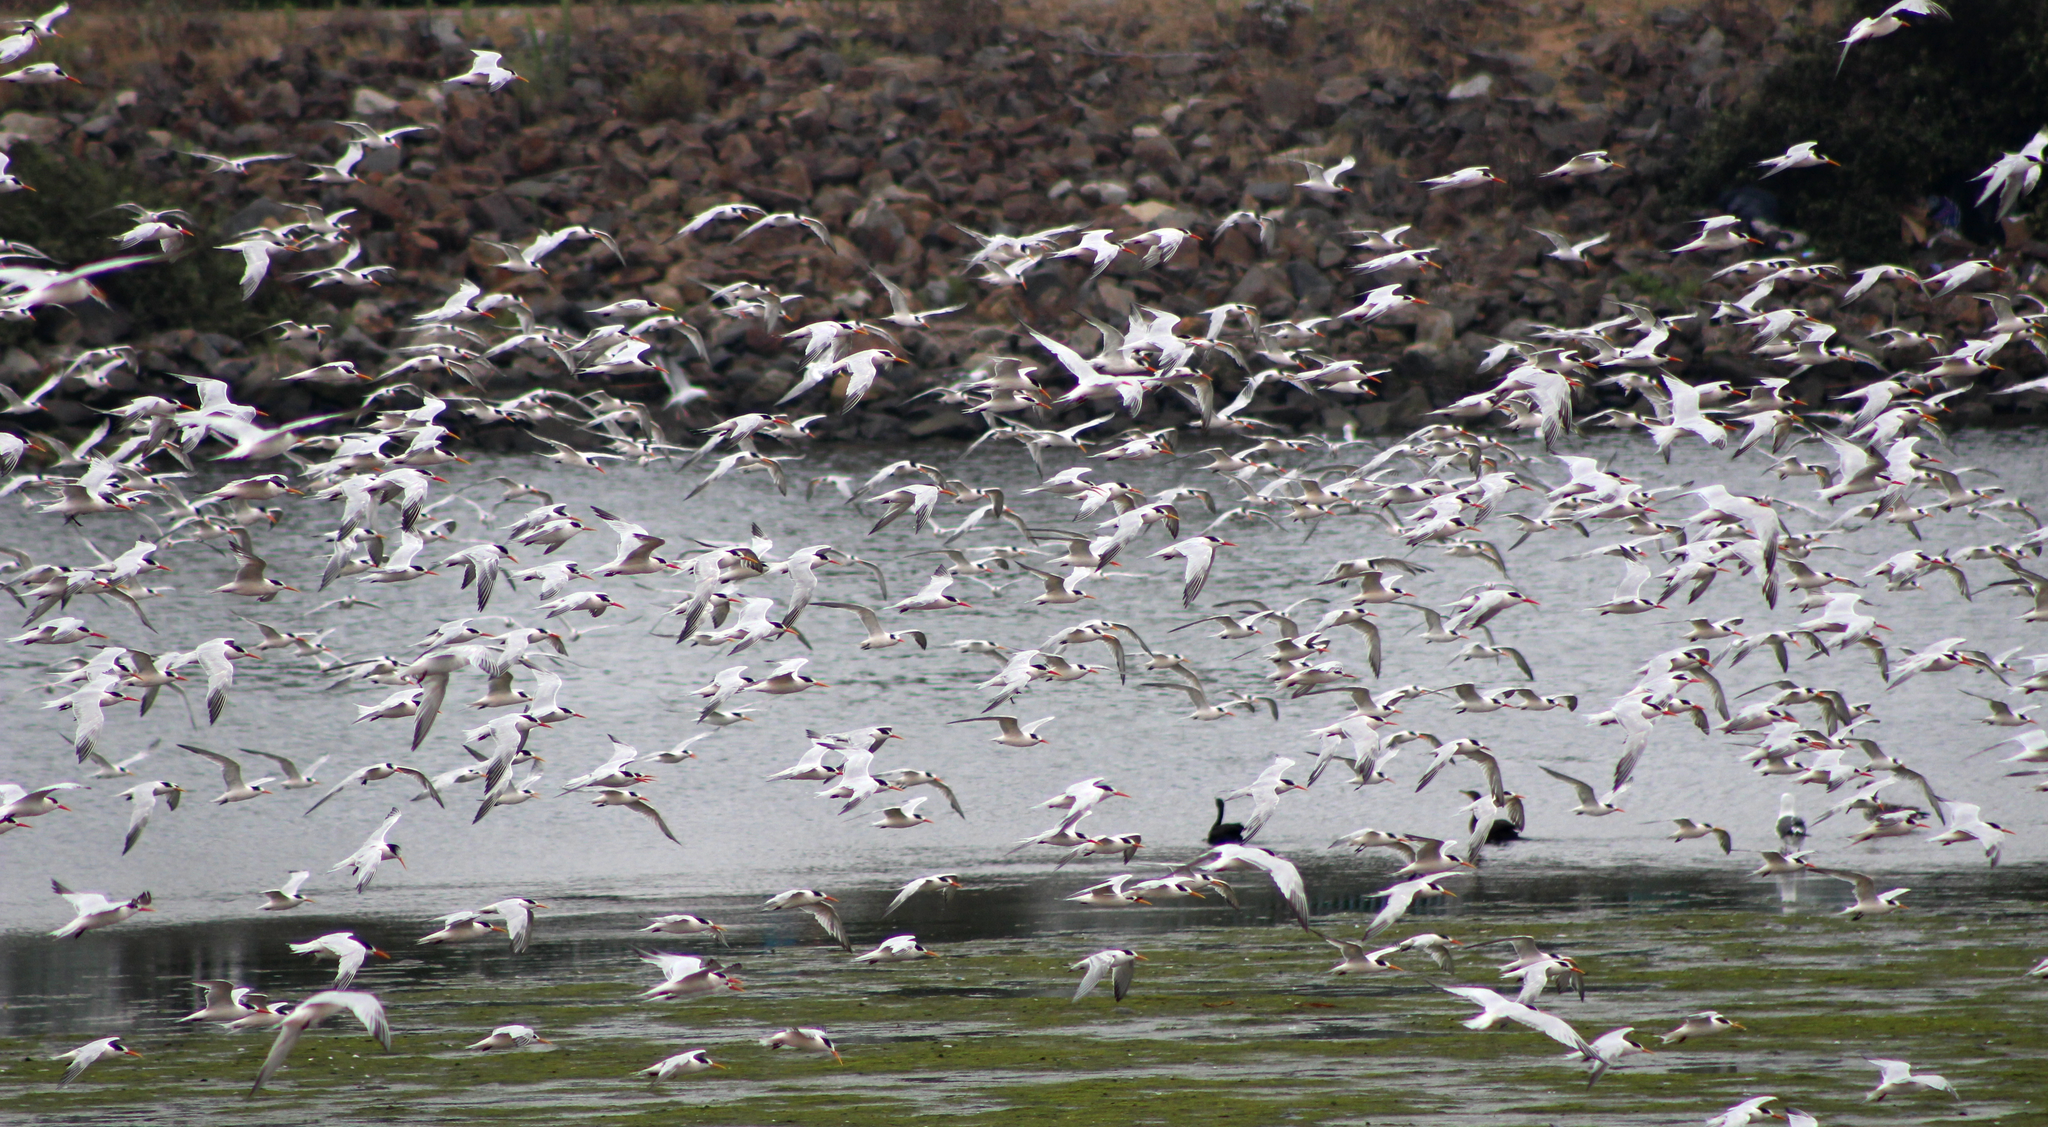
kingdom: Animalia
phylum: Chordata
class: Aves
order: Charadriiformes
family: Laridae
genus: Hydroprogne
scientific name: Hydroprogne caspia
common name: Caspian tern
